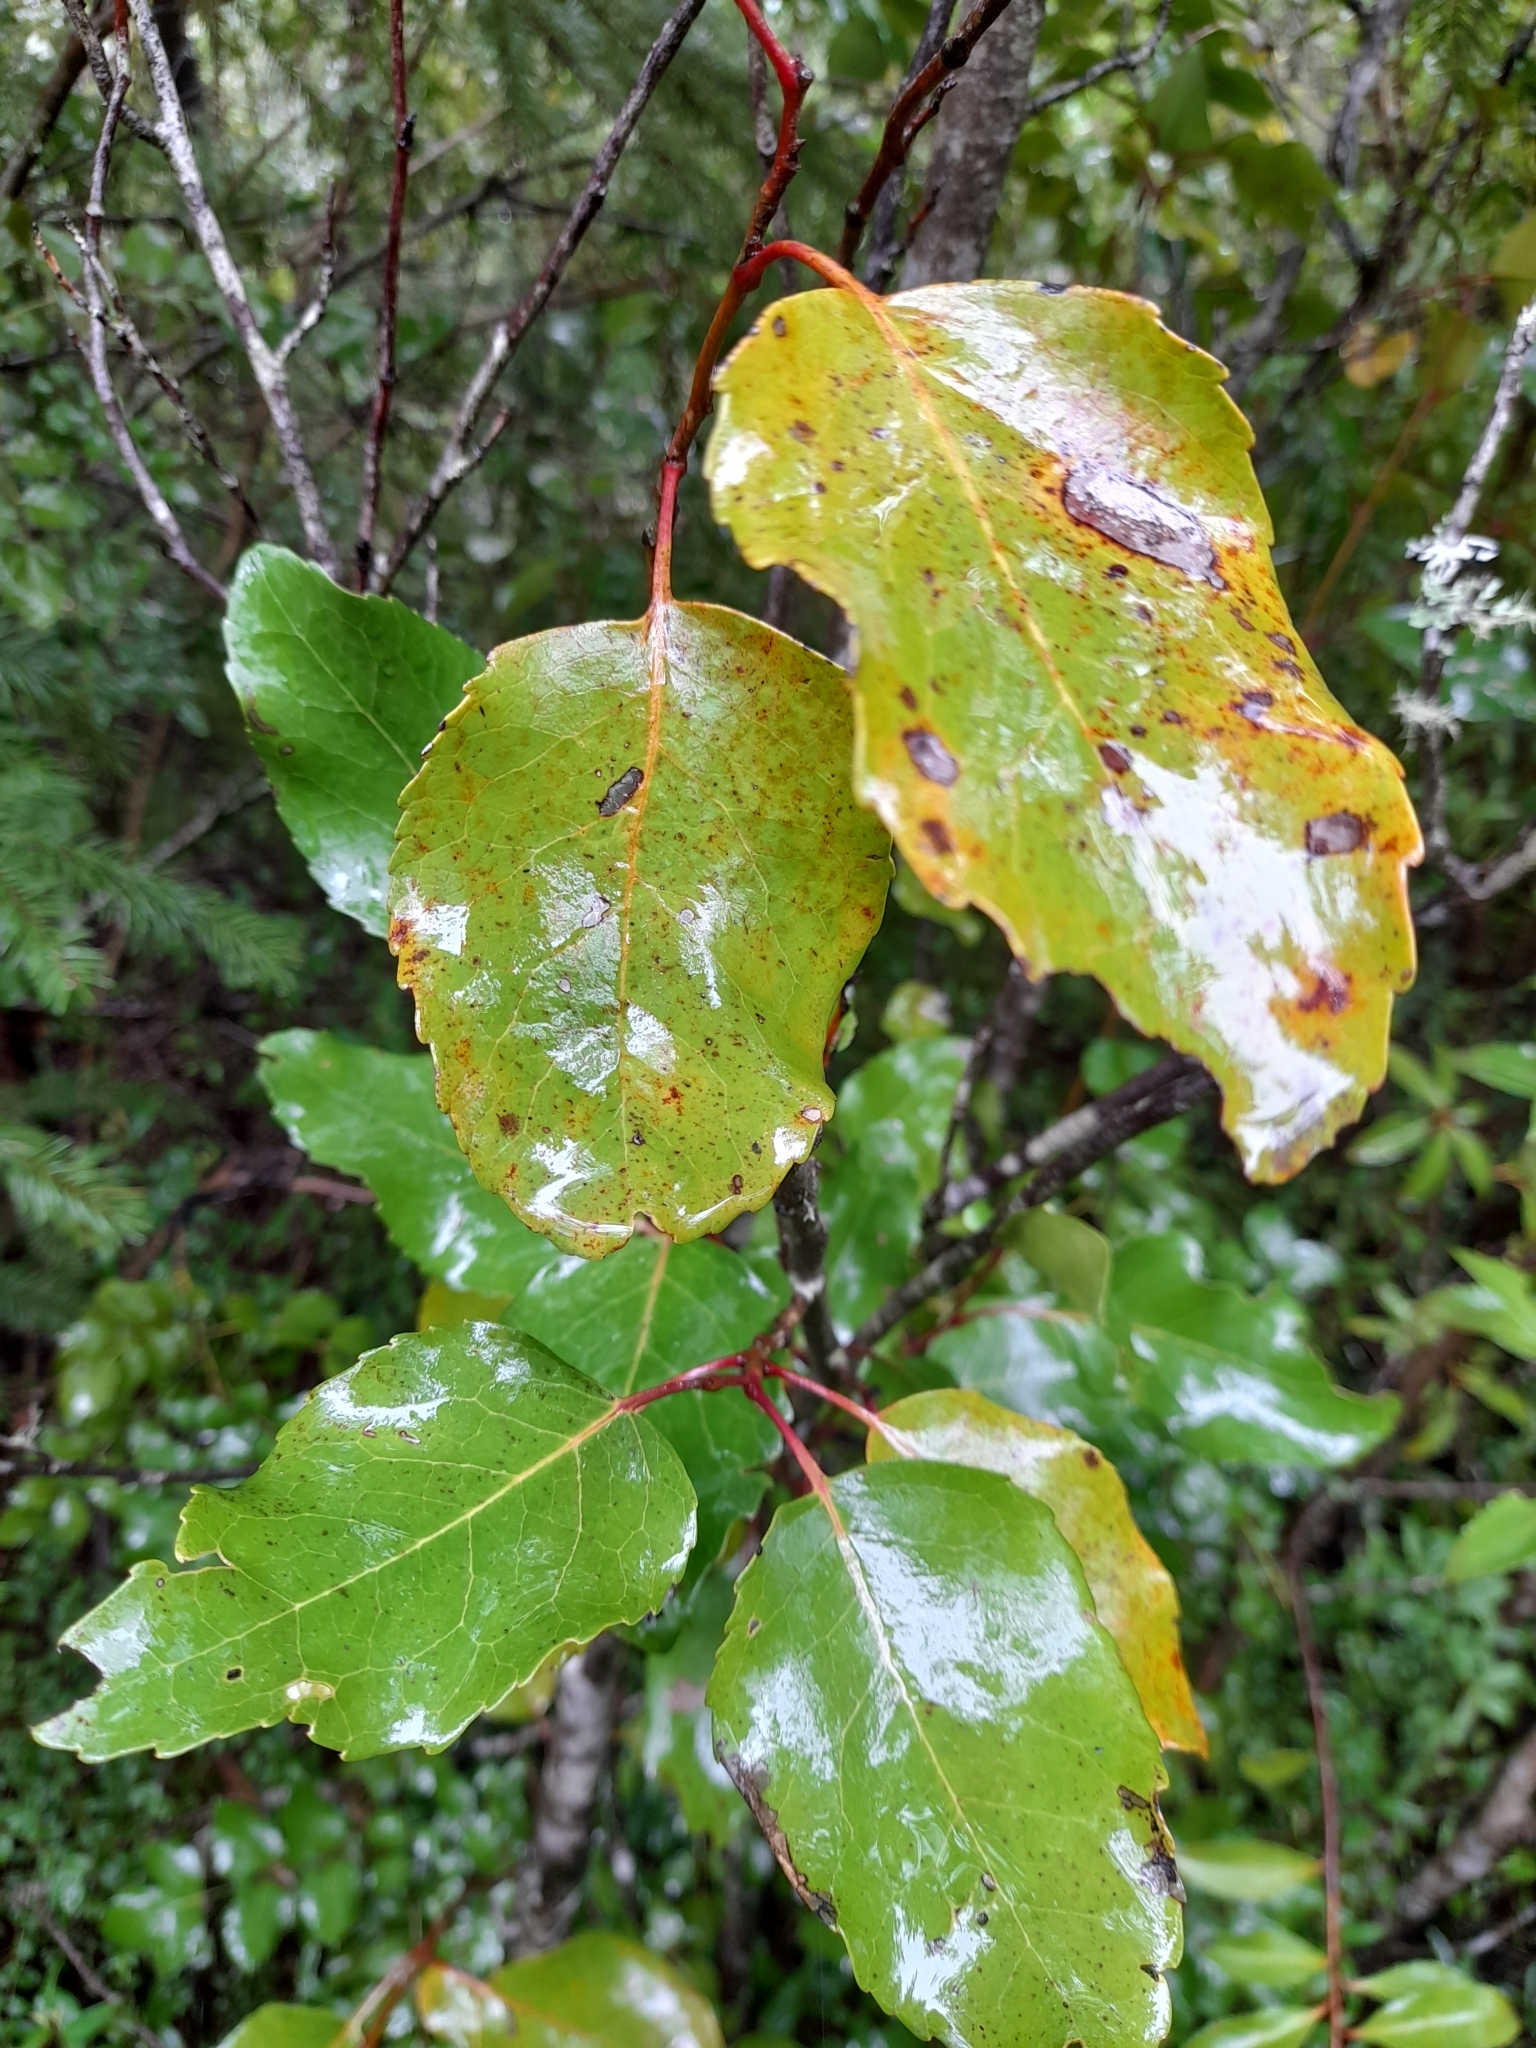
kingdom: Plantae
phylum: Tracheophyta
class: Magnoliopsida
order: Proteales
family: Proteaceae
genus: Lomatia
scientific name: Lomatia hirsuta
